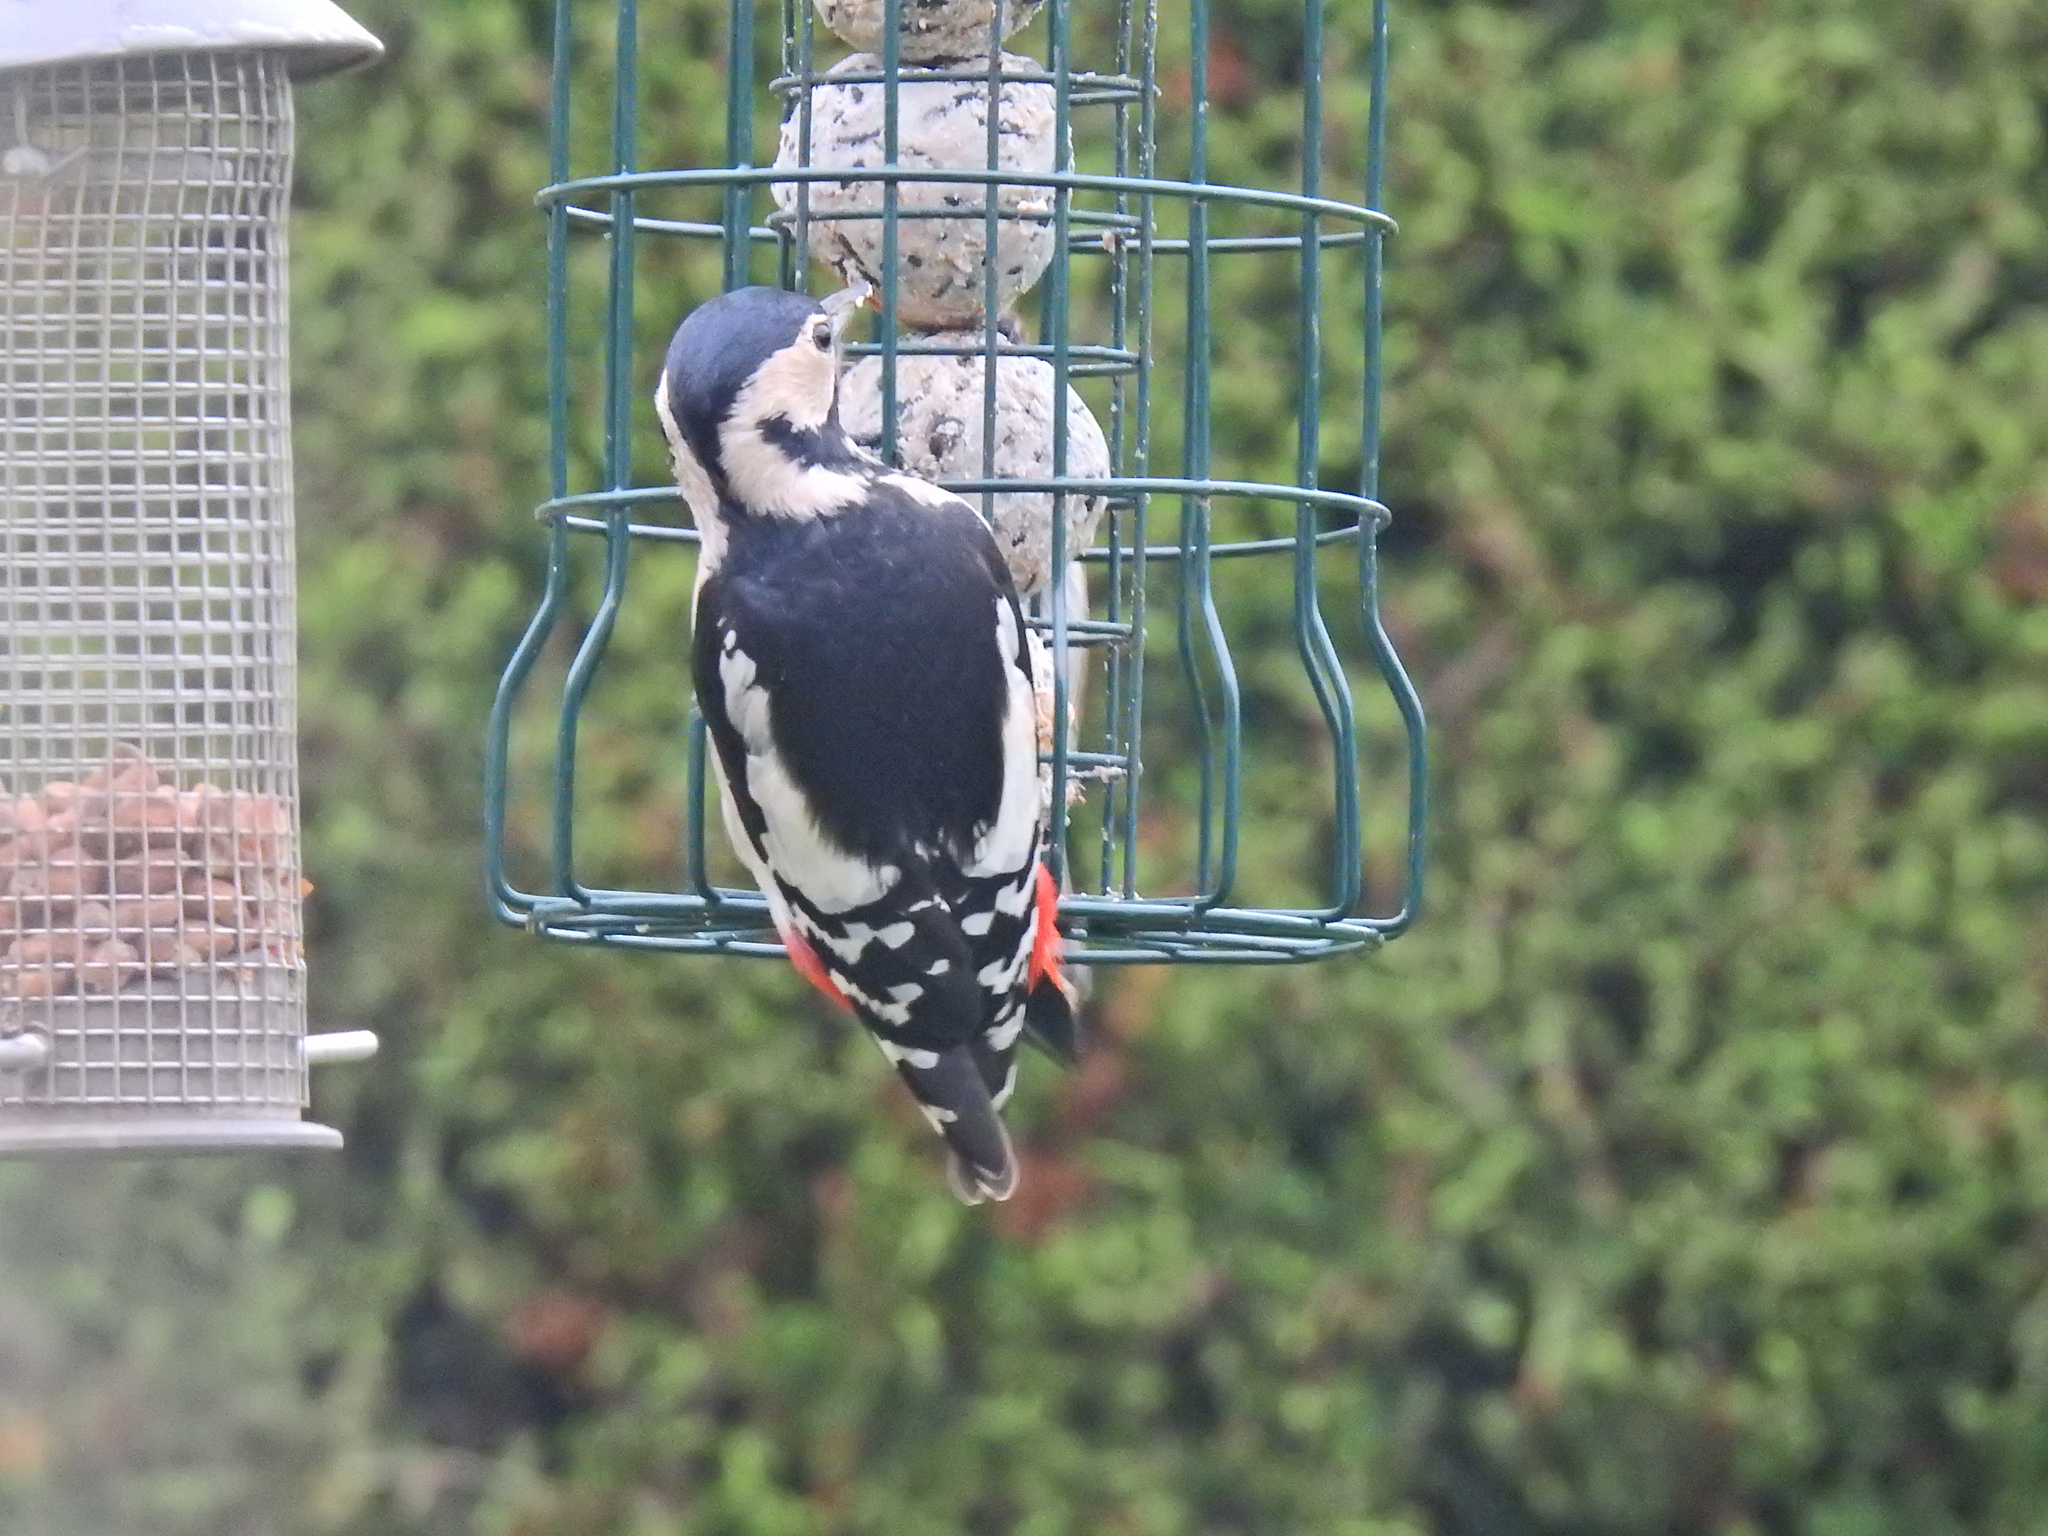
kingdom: Animalia
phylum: Chordata
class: Aves
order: Piciformes
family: Picidae
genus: Dendrocopos
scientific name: Dendrocopos major
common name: Great spotted woodpecker
